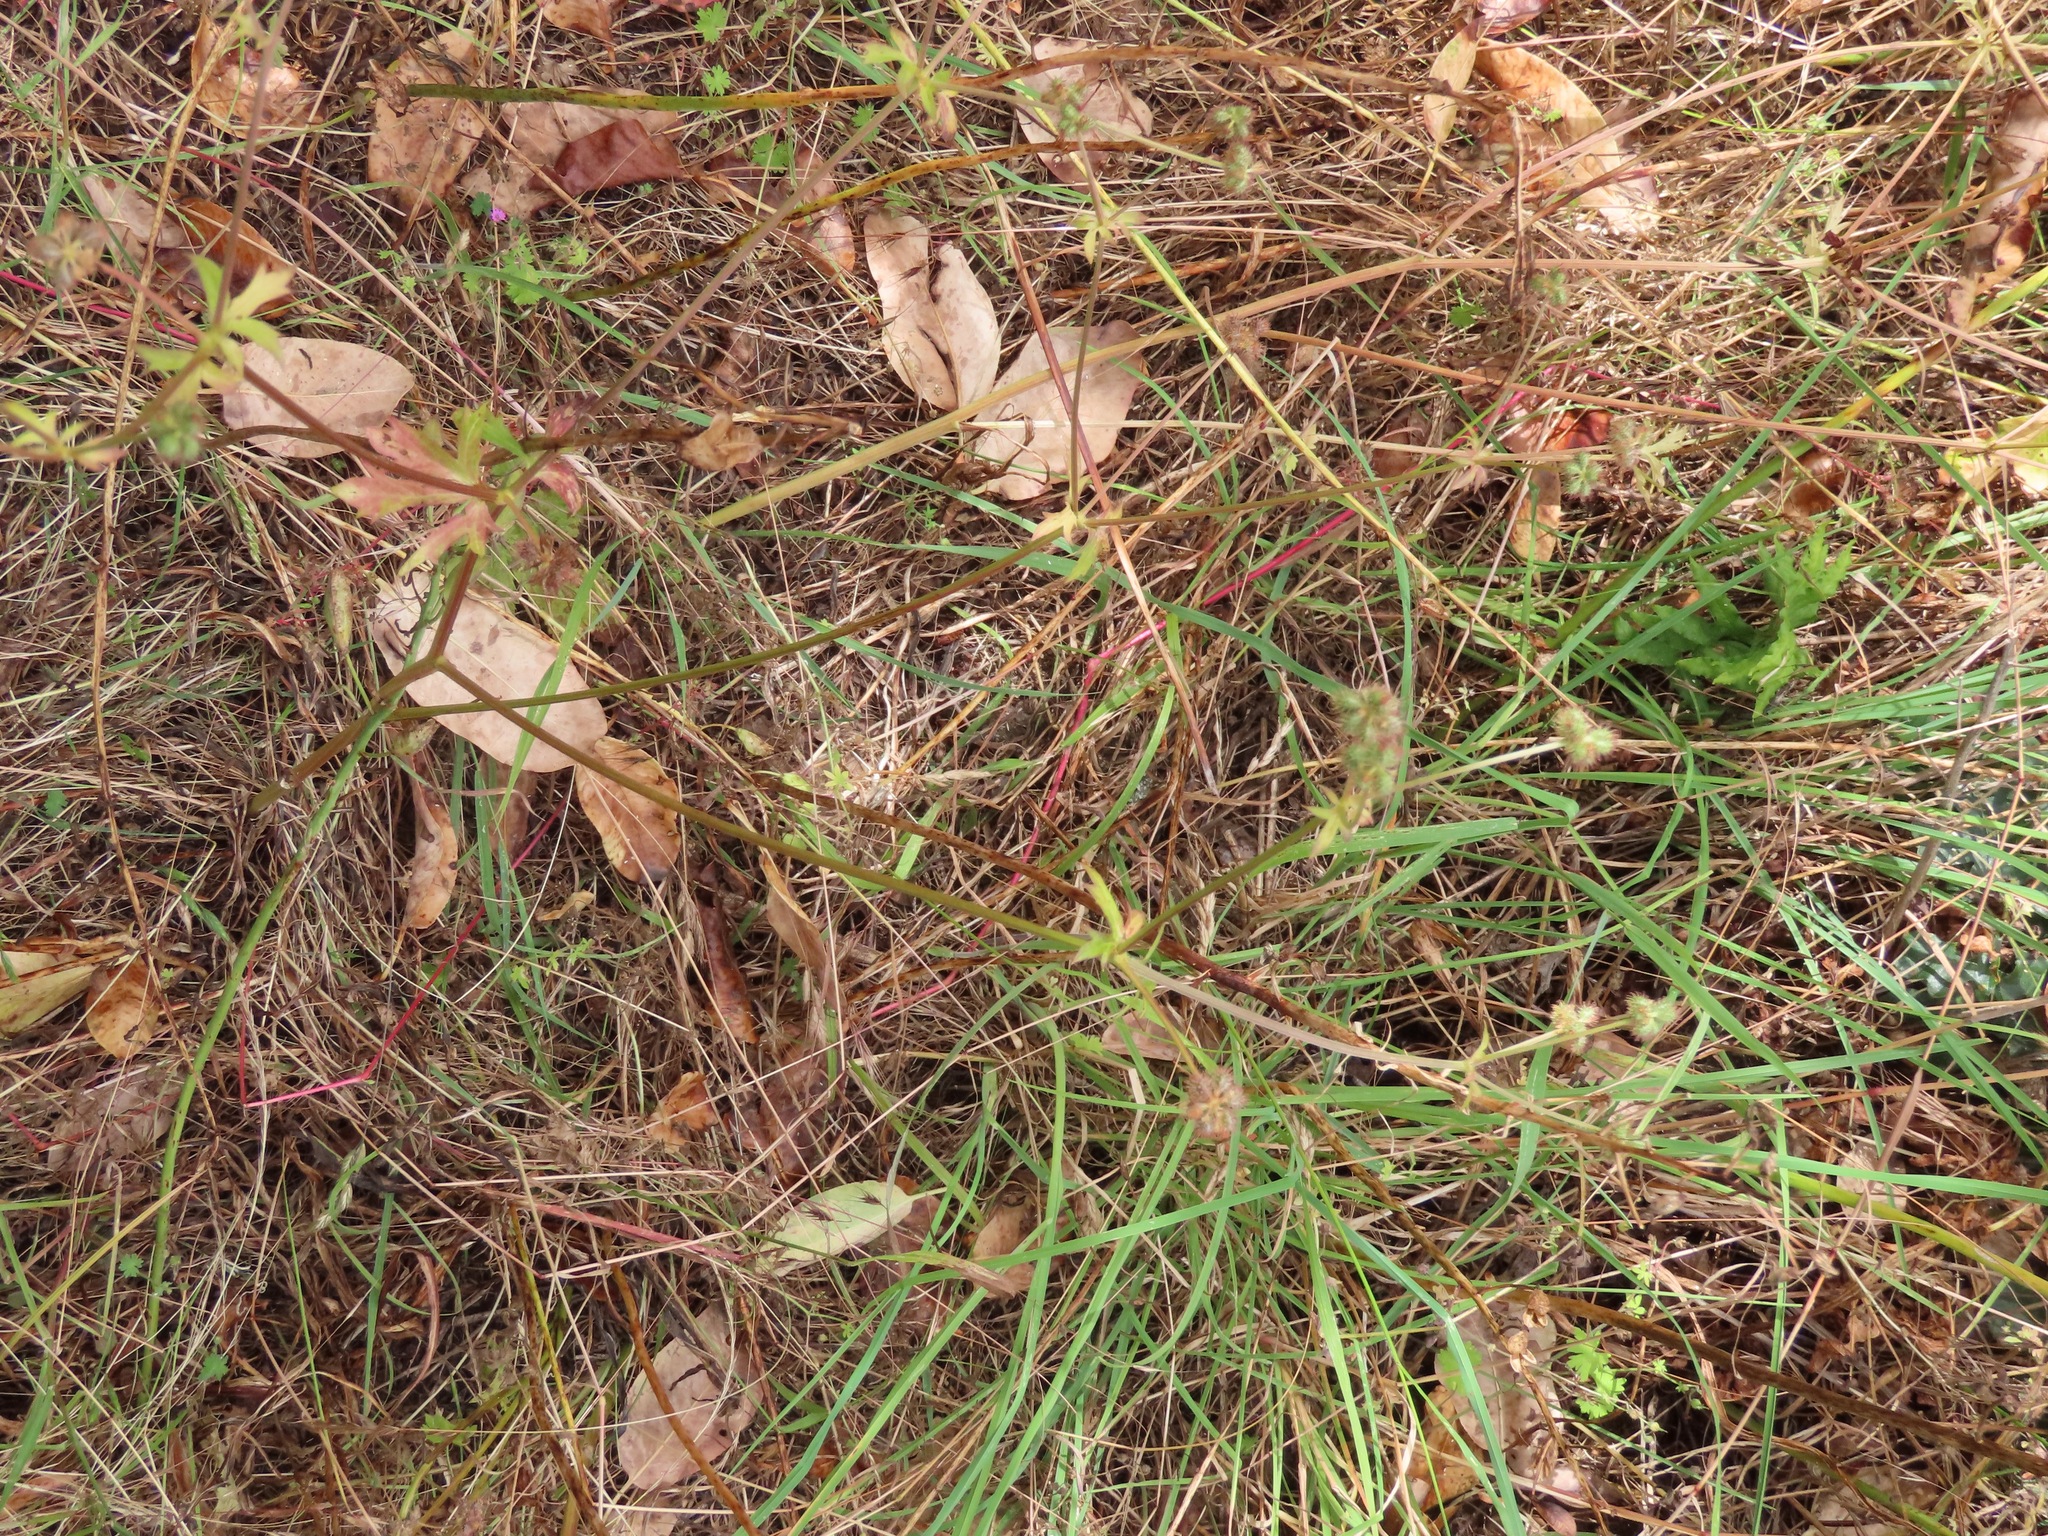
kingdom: Plantae
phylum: Tracheophyta
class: Magnoliopsida
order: Apiales
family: Apiaceae
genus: Sanicula
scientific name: Sanicula crassicaulis
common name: Western snakeroot
